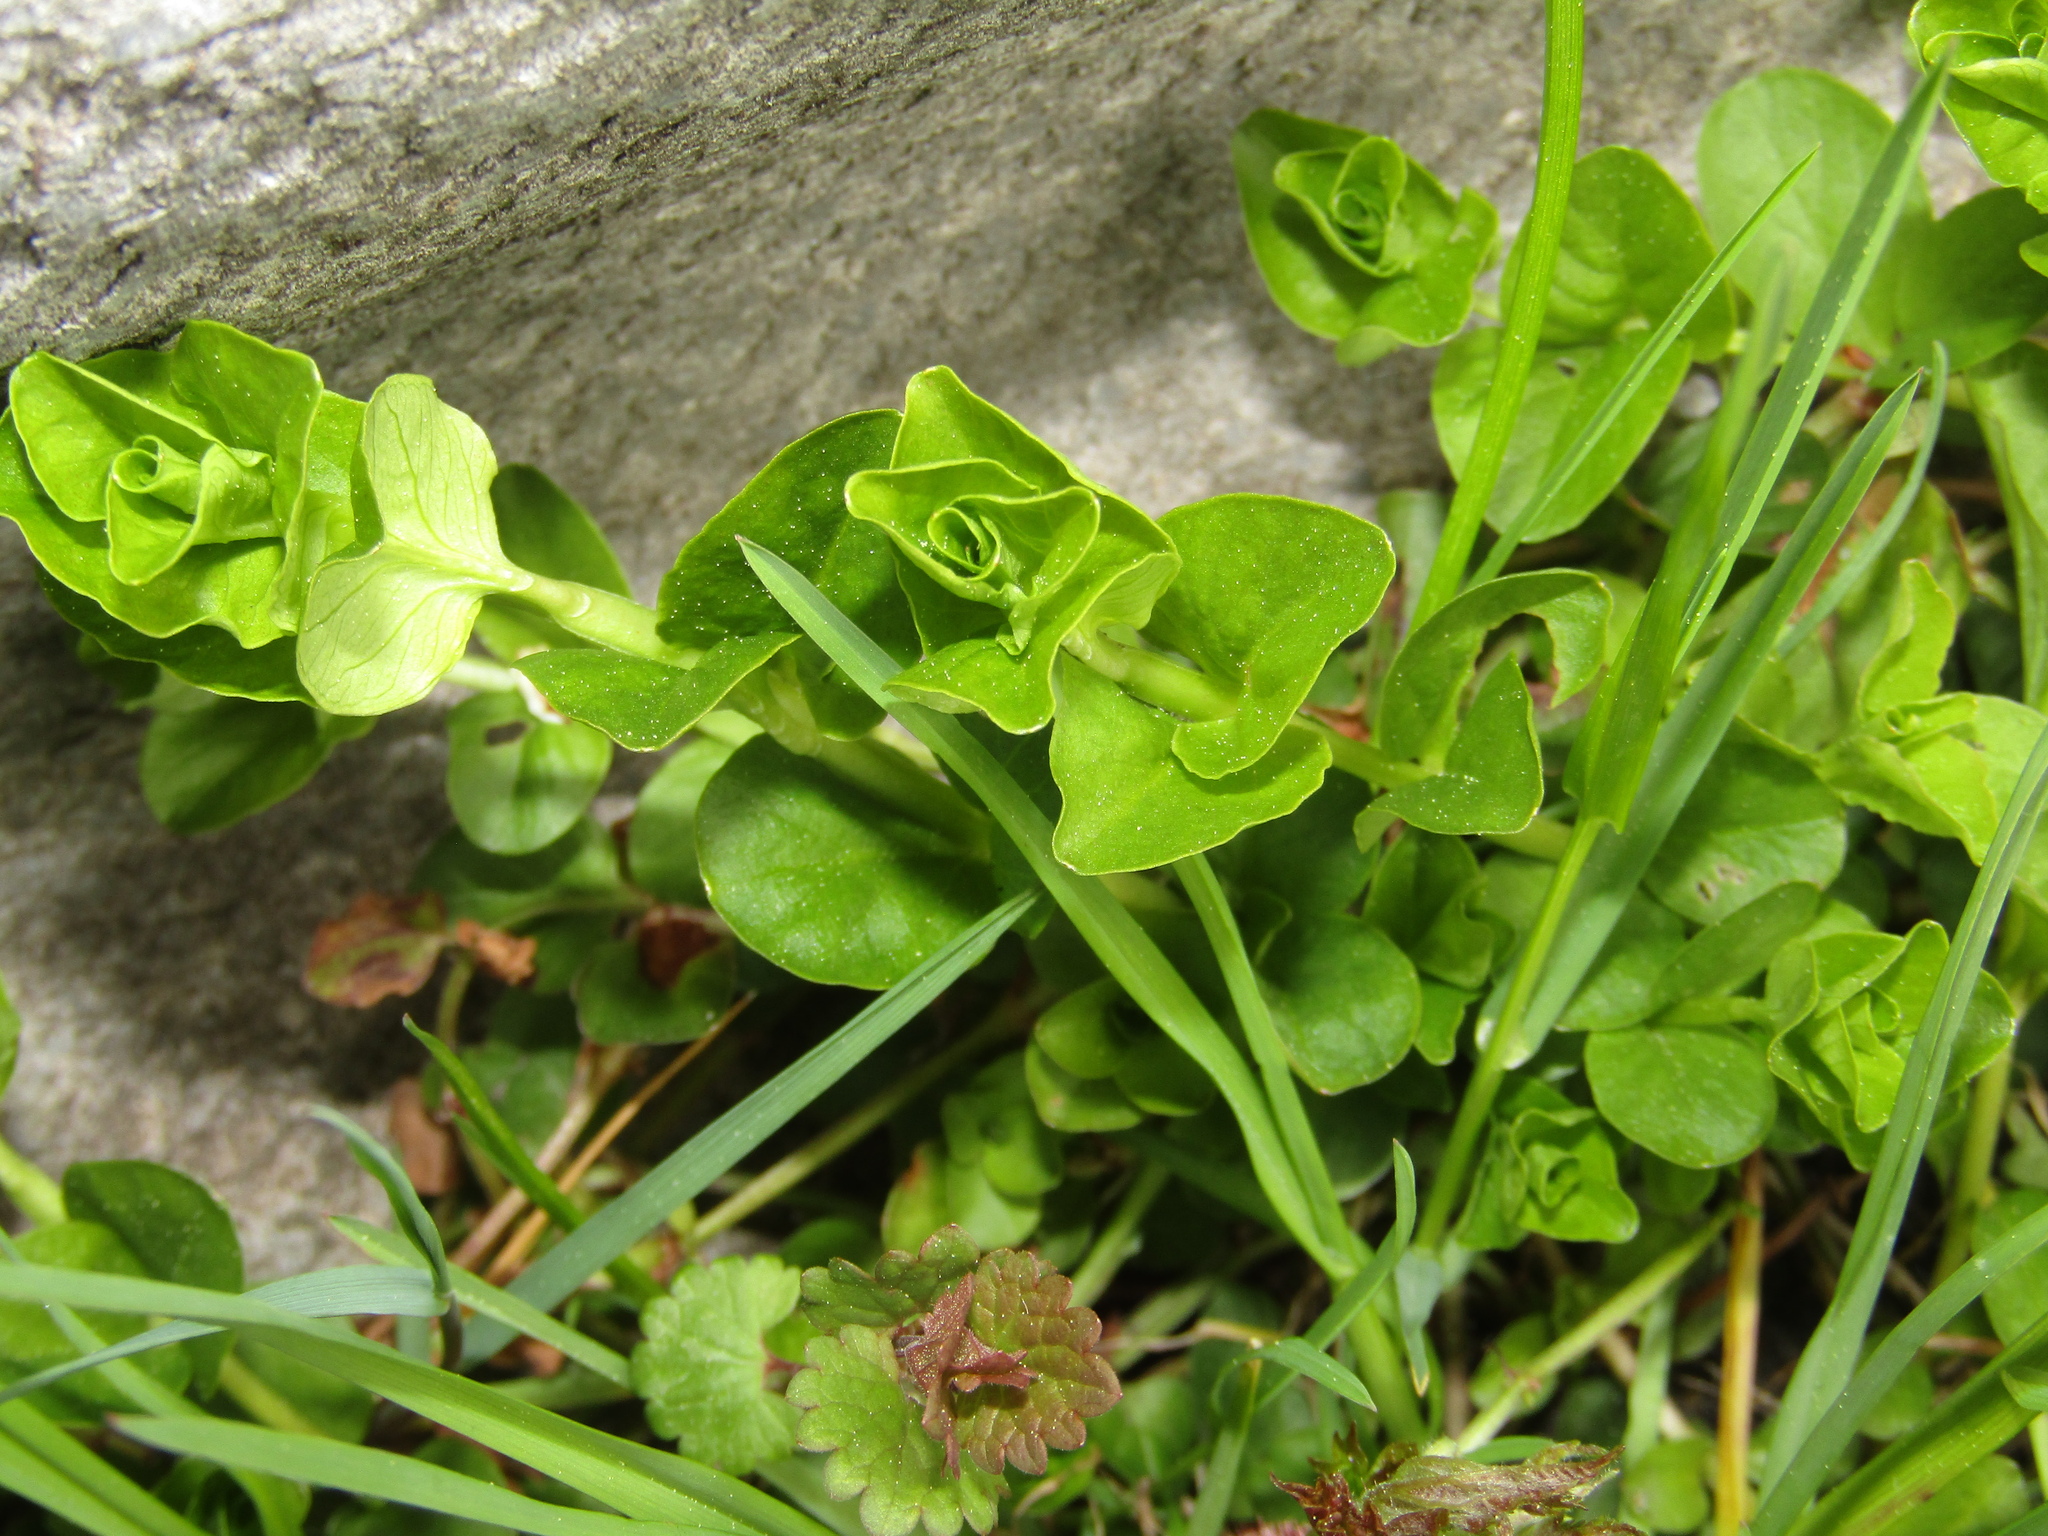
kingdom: Plantae
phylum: Tracheophyta
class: Magnoliopsida
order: Ericales
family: Primulaceae
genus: Lysimachia
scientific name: Lysimachia nummularia
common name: Moneywort
